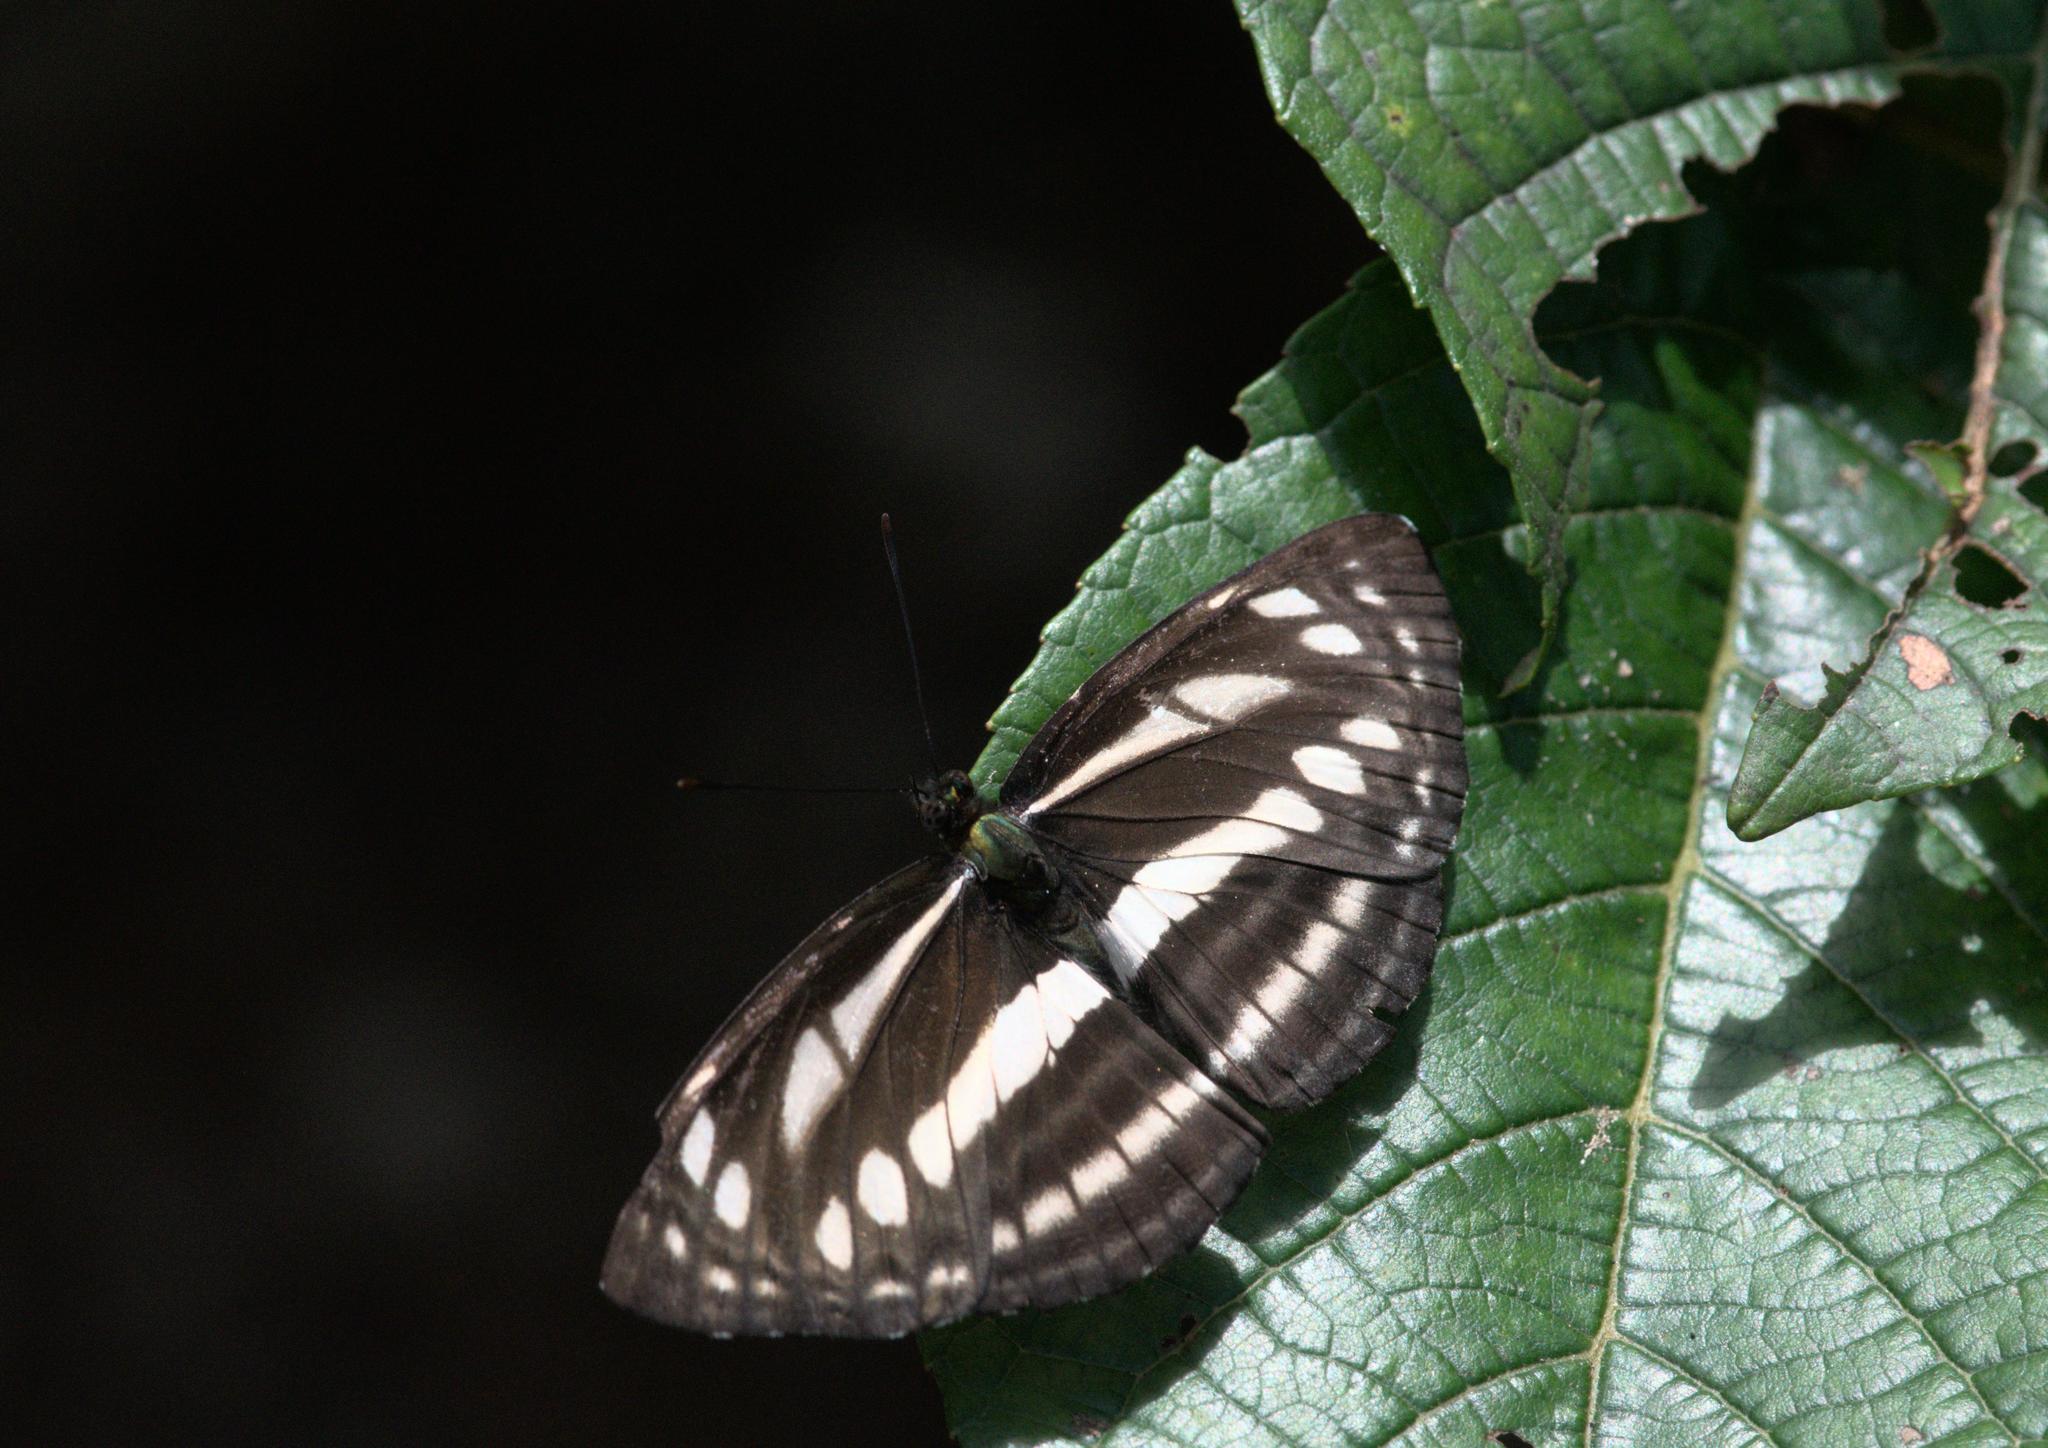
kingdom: Animalia
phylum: Arthropoda
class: Insecta
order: Lepidoptera
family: Nymphalidae
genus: Neptis
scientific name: Neptis soma
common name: Cream-spotted sailor
